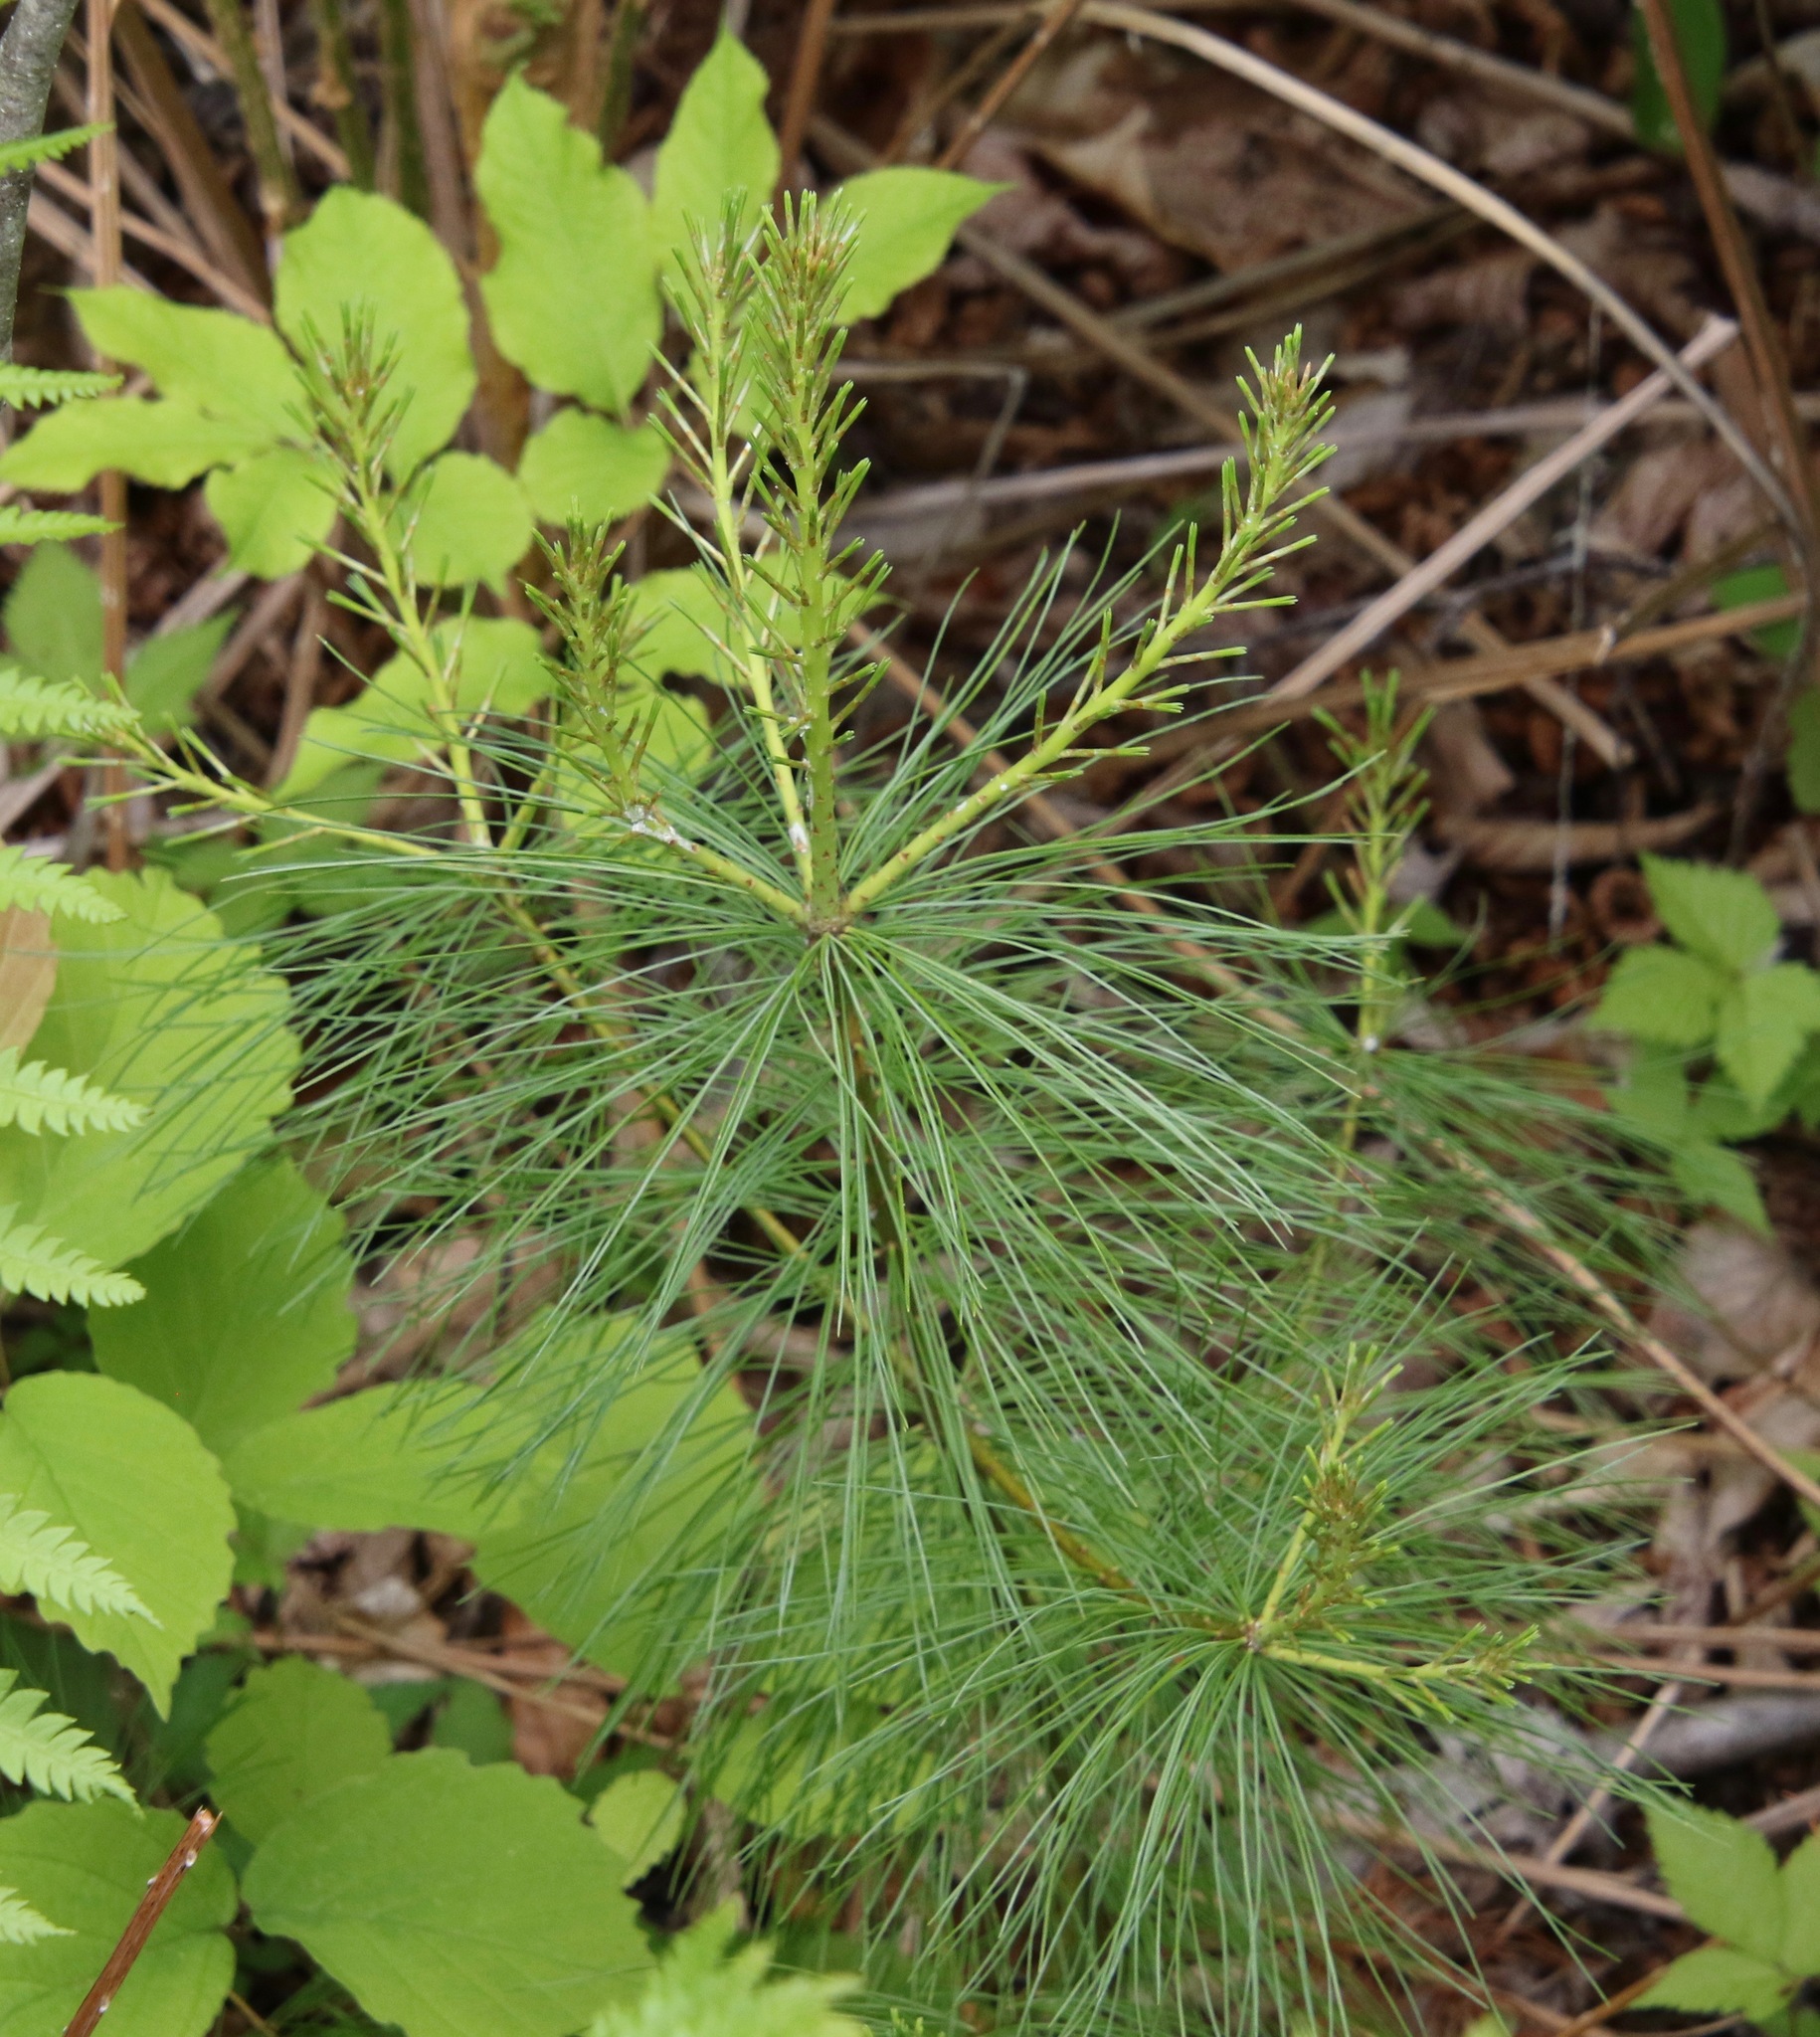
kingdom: Plantae
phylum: Tracheophyta
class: Pinopsida
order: Pinales
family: Pinaceae
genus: Pinus
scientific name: Pinus strobus
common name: Weymouth pine
